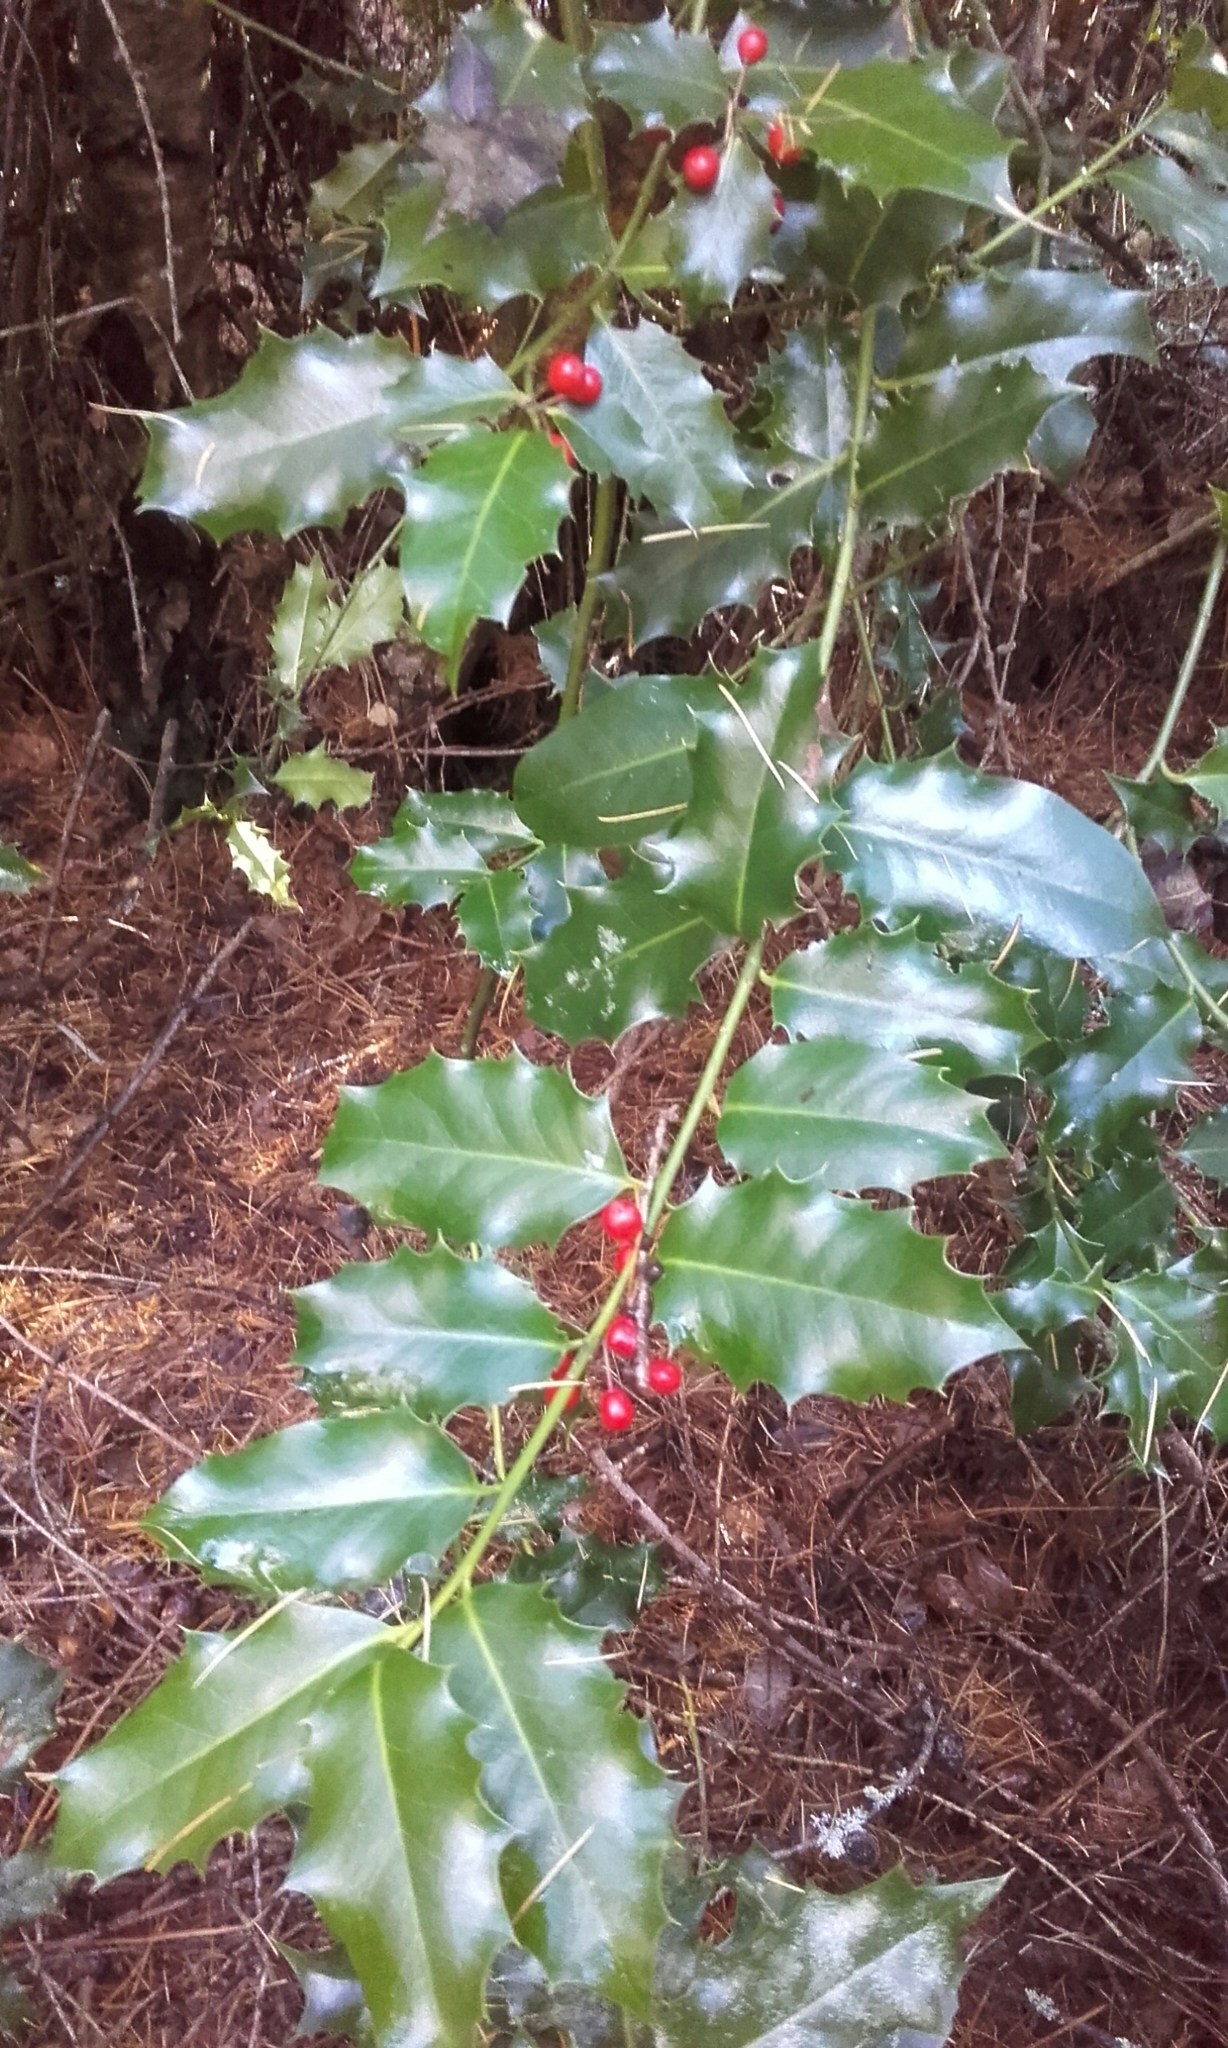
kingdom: Plantae
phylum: Tracheophyta
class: Magnoliopsida
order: Aquifoliales
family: Aquifoliaceae
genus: Ilex
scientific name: Ilex aquifolium
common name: English holly
